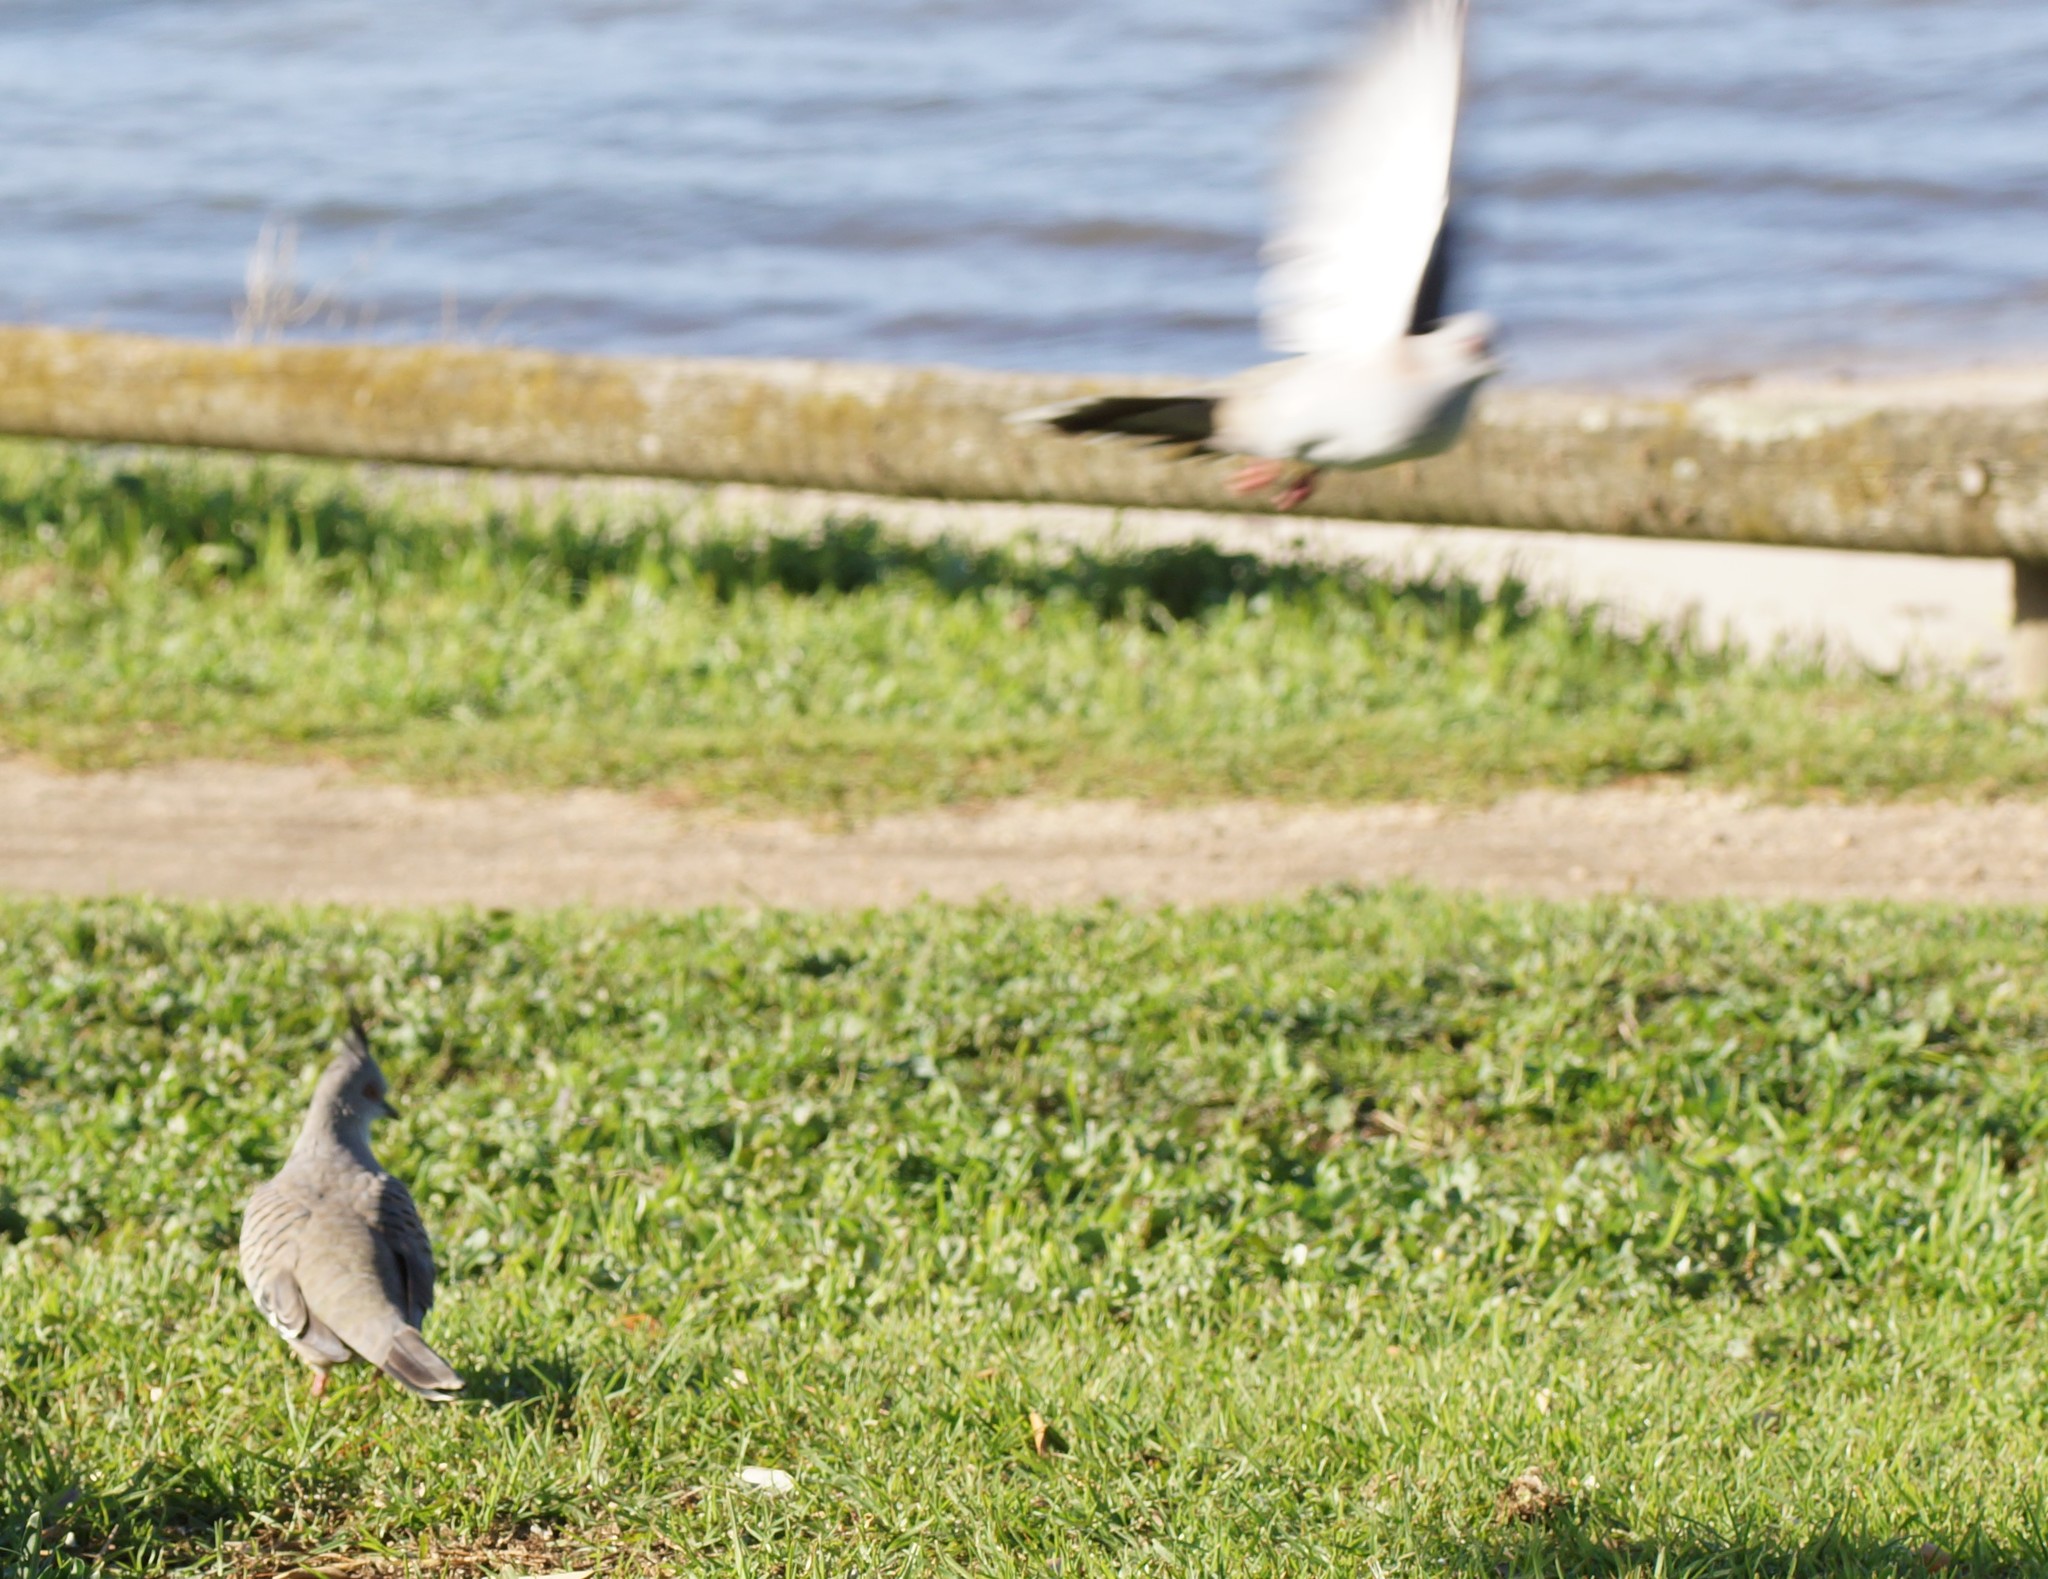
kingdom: Animalia
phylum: Chordata
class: Aves
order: Columbiformes
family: Columbidae
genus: Ocyphaps
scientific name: Ocyphaps lophotes
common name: Crested pigeon
